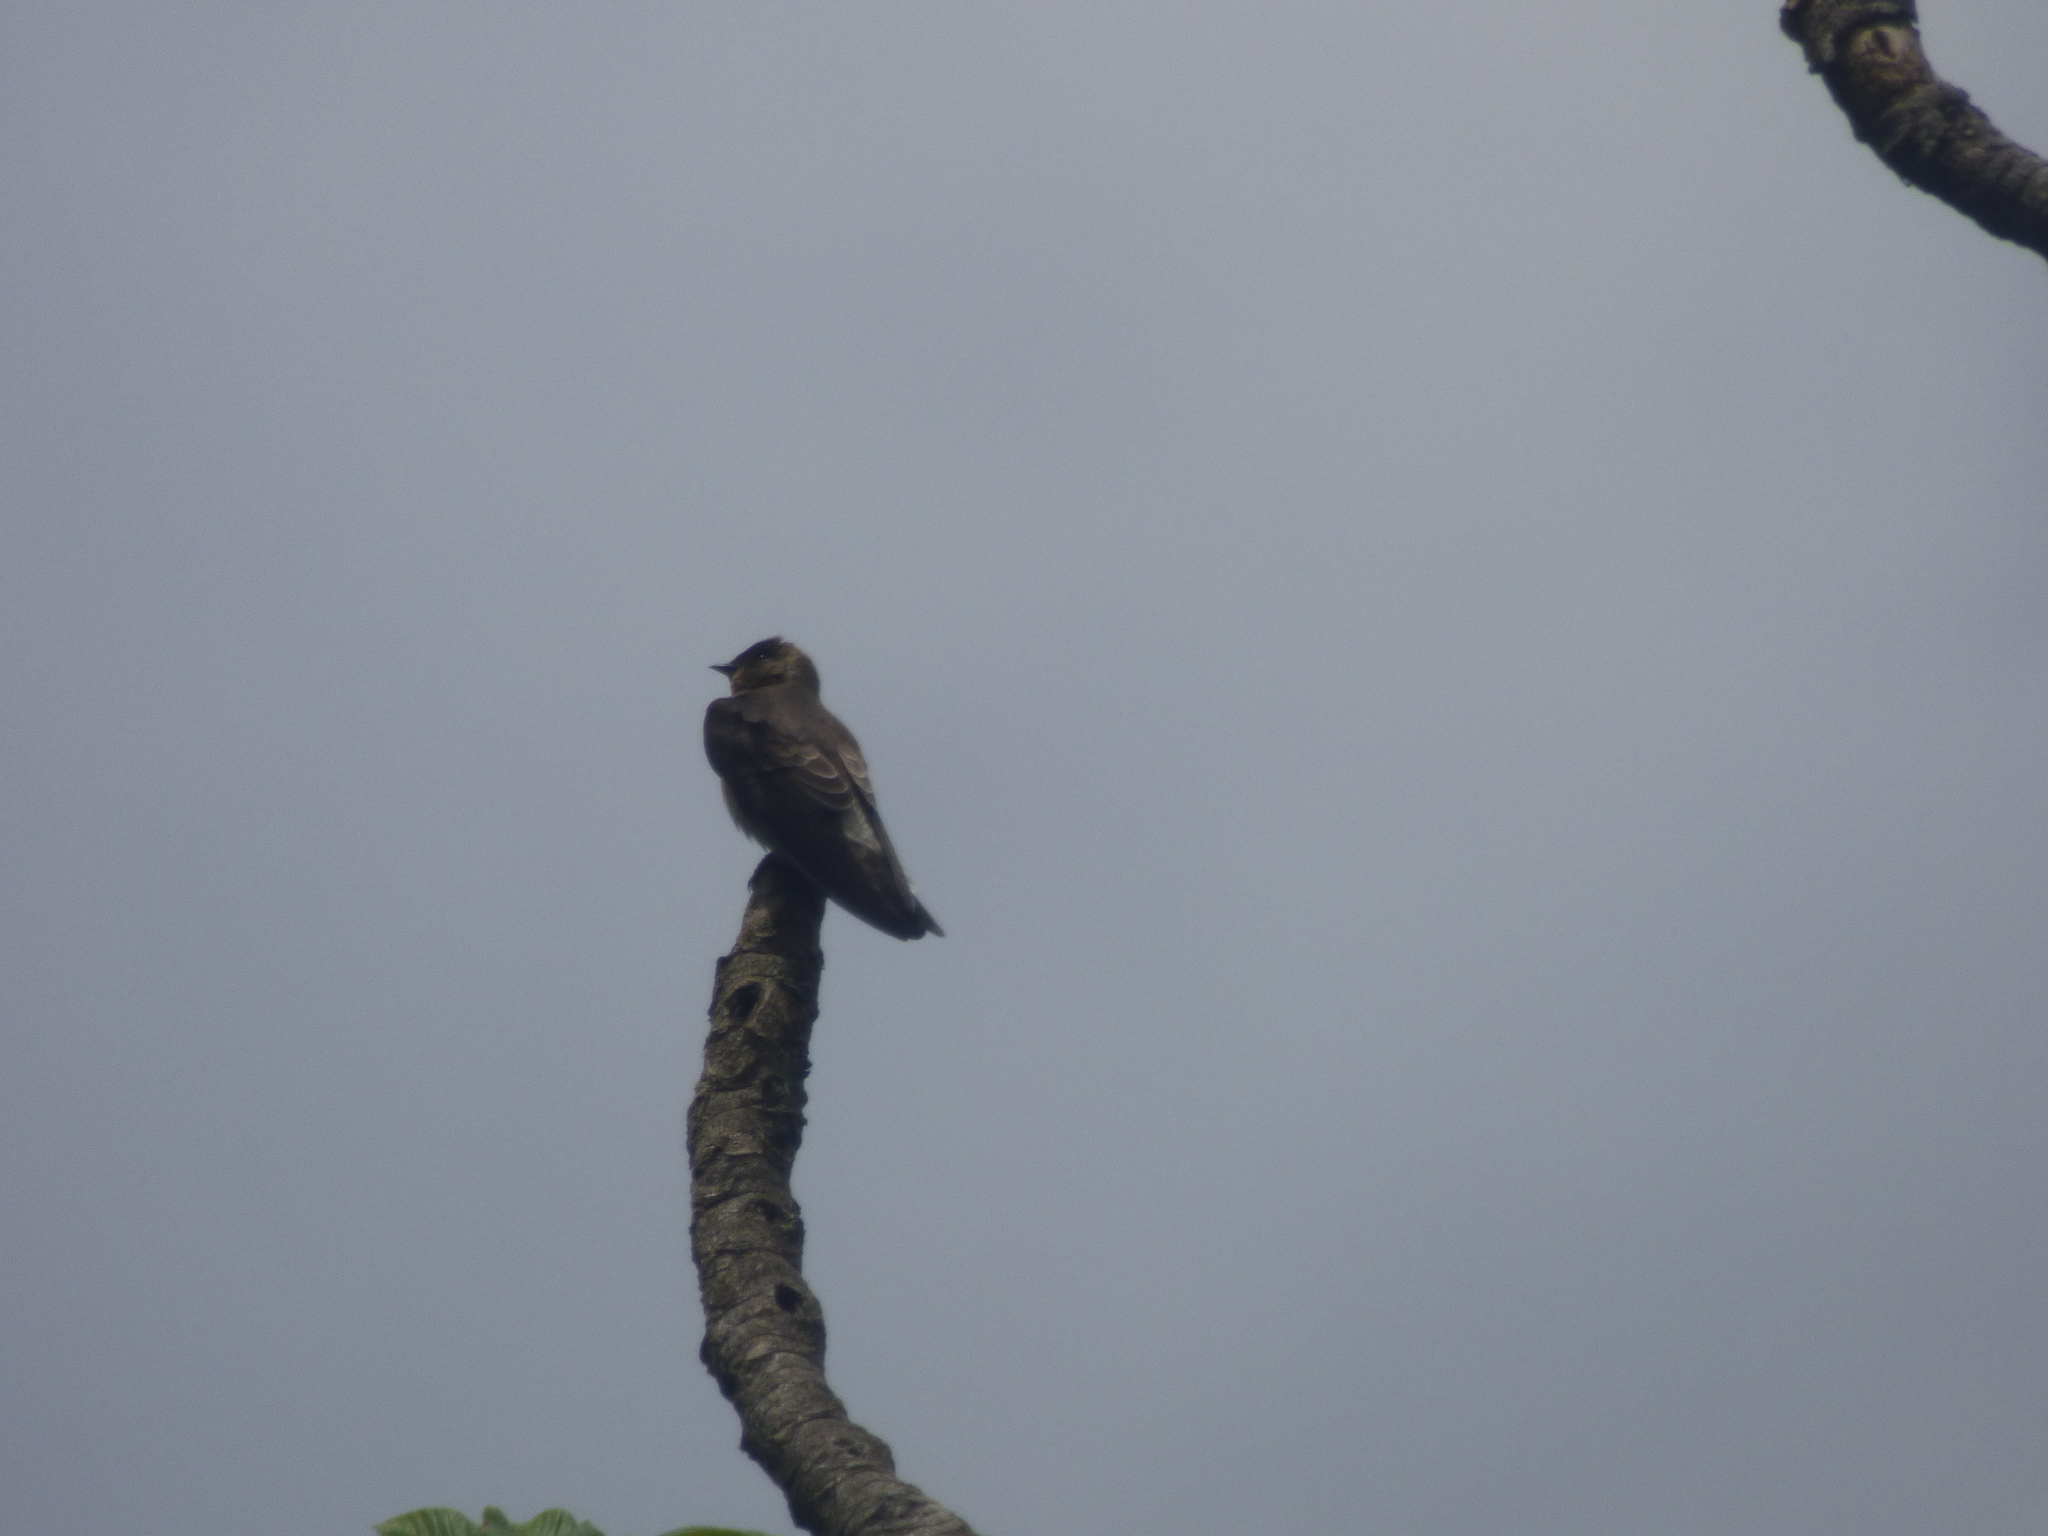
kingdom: Animalia
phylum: Chordata
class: Aves
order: Passeriformes
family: Hirundinidae
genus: Stelgidopteryx
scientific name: Stelgidopteryx ruficollis
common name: Southern rough-winged swallow
